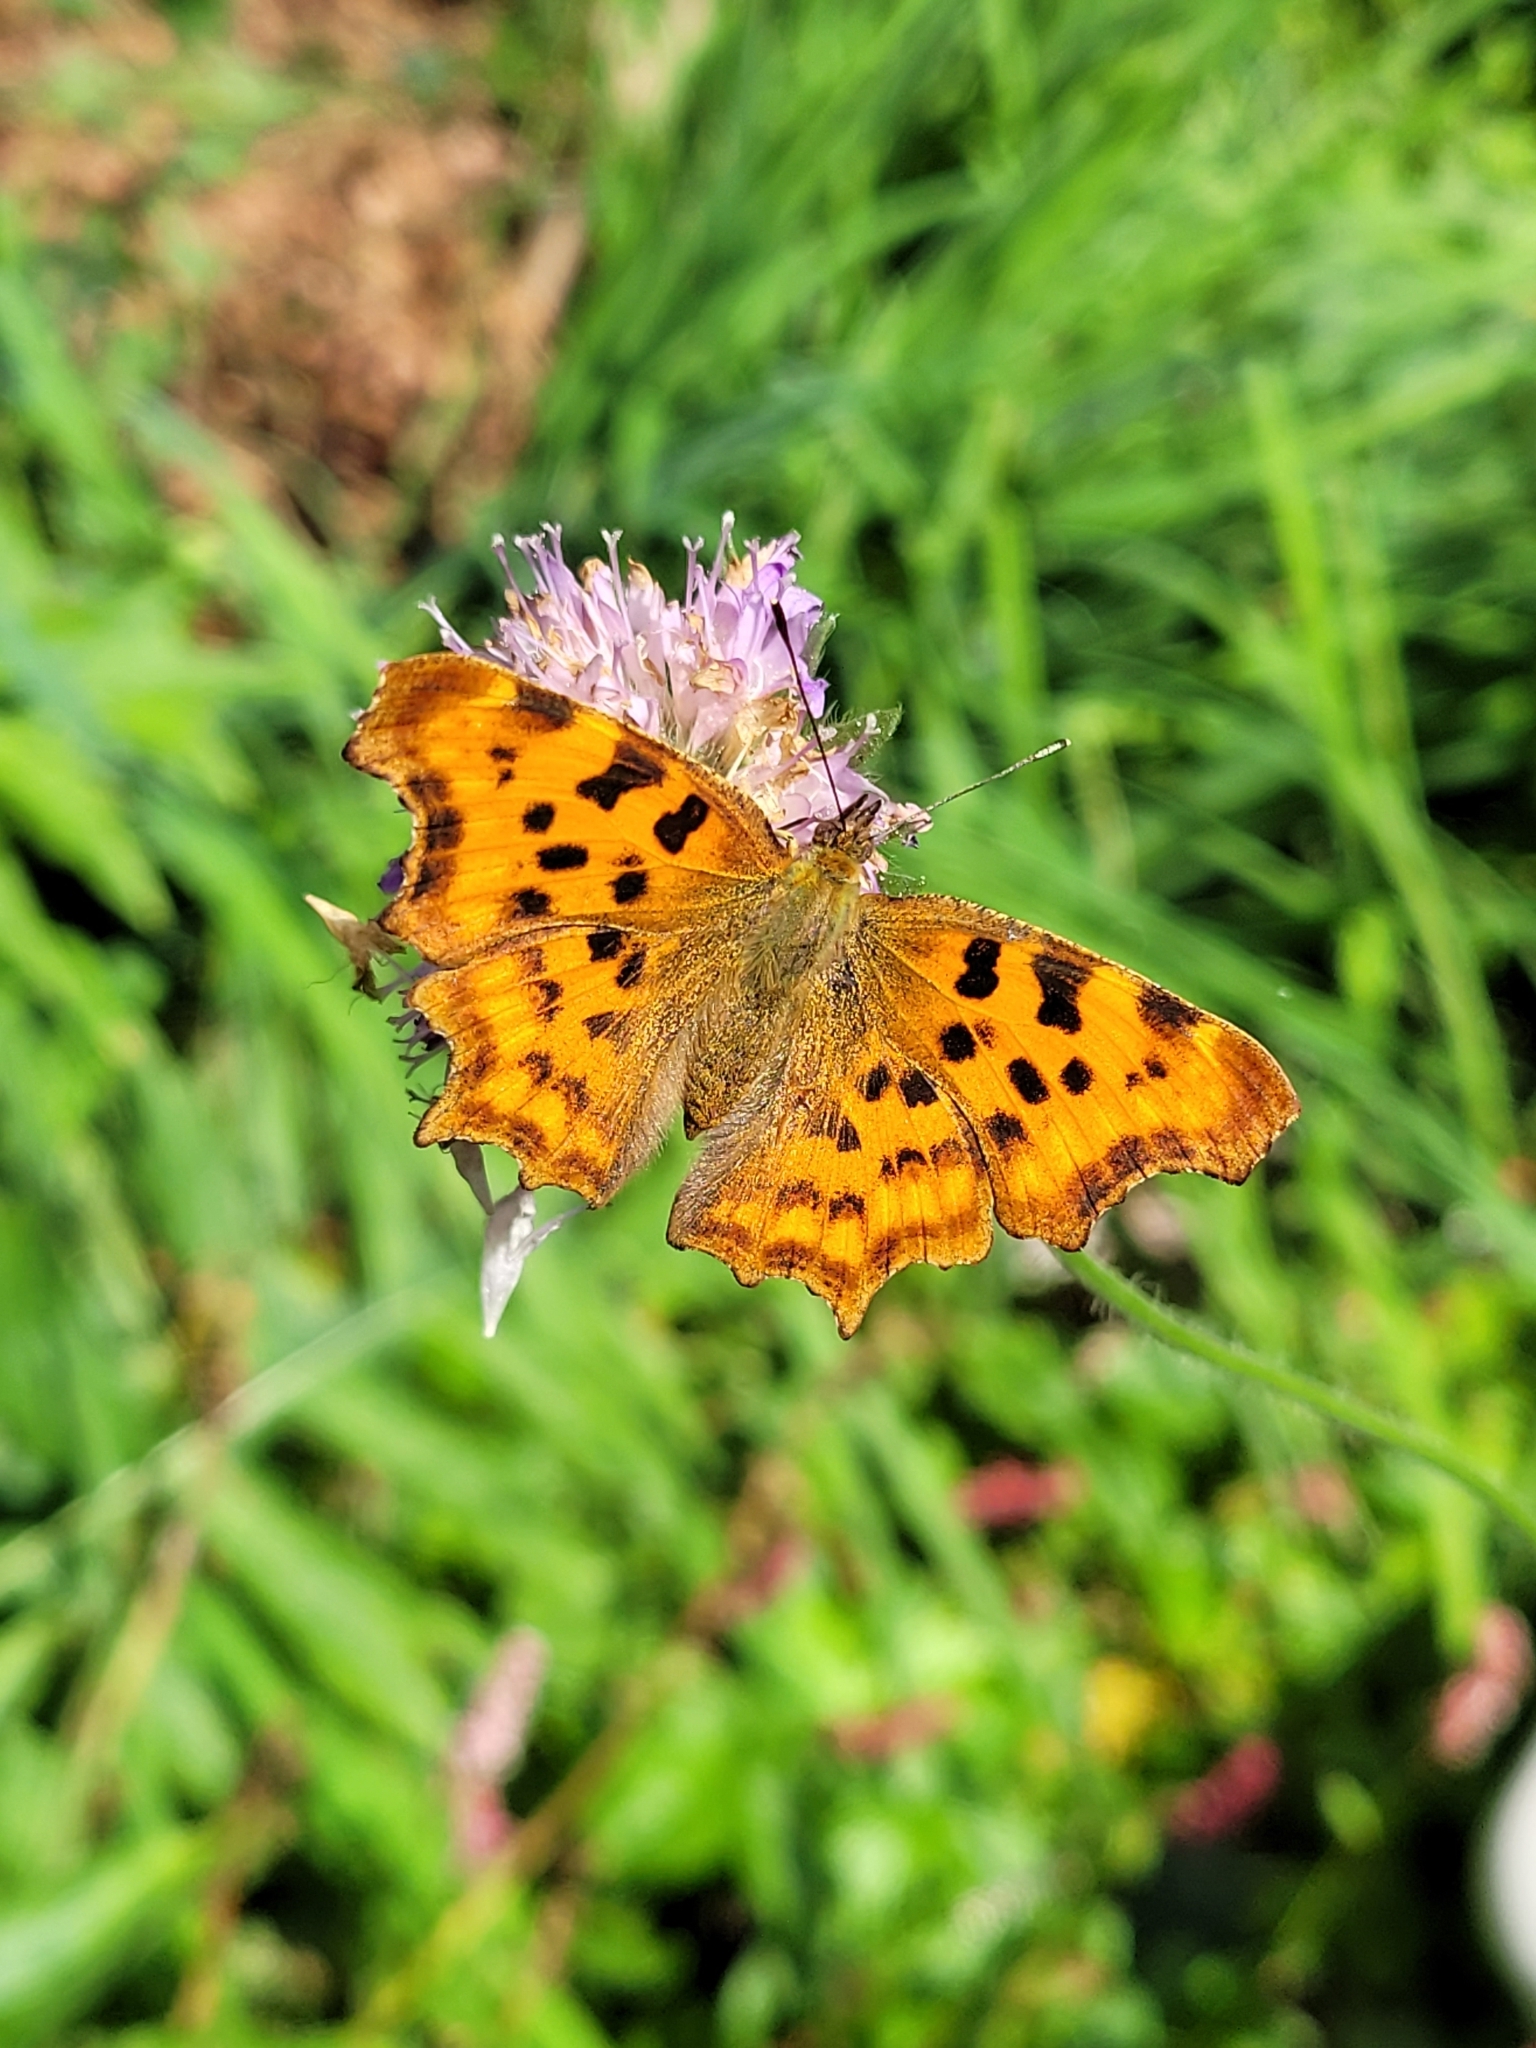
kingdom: Animalia
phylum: Arthropoda
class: Insecta
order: Lepidoptera
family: Nymphalidae
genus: Polygonia
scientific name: Polygonia c-album
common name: Comma
